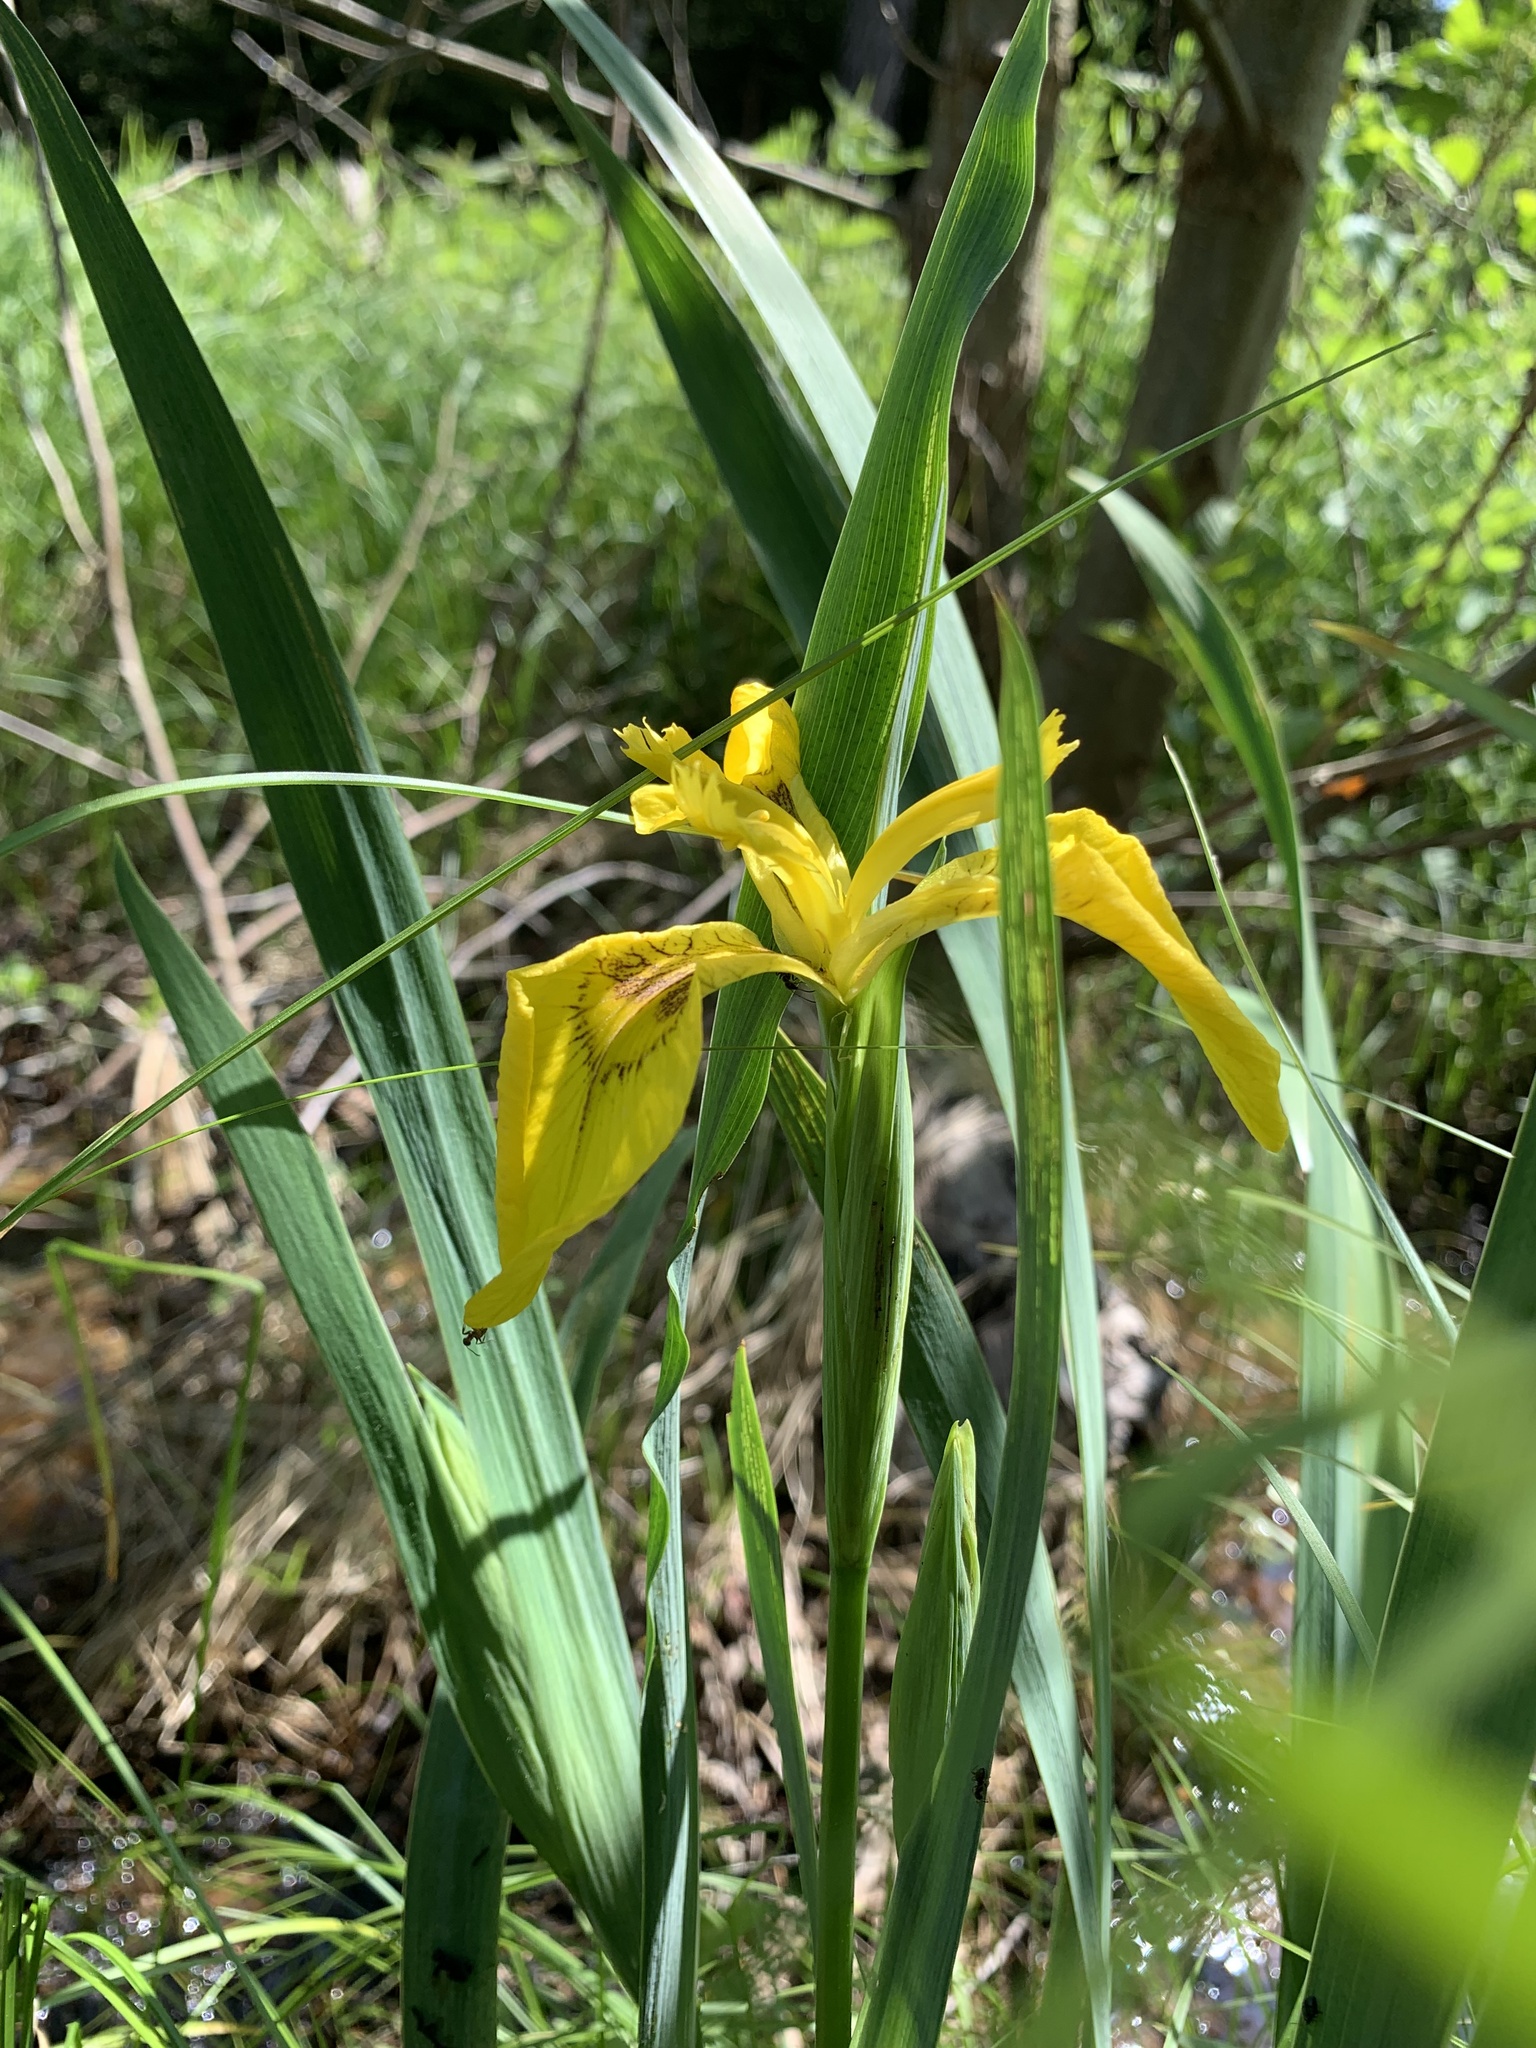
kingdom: Plantae
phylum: Tracheophyta
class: Liliopsida
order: Asparagales
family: Iridaceae
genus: Iris
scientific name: Iris pseudacorus
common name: Yellow flag
